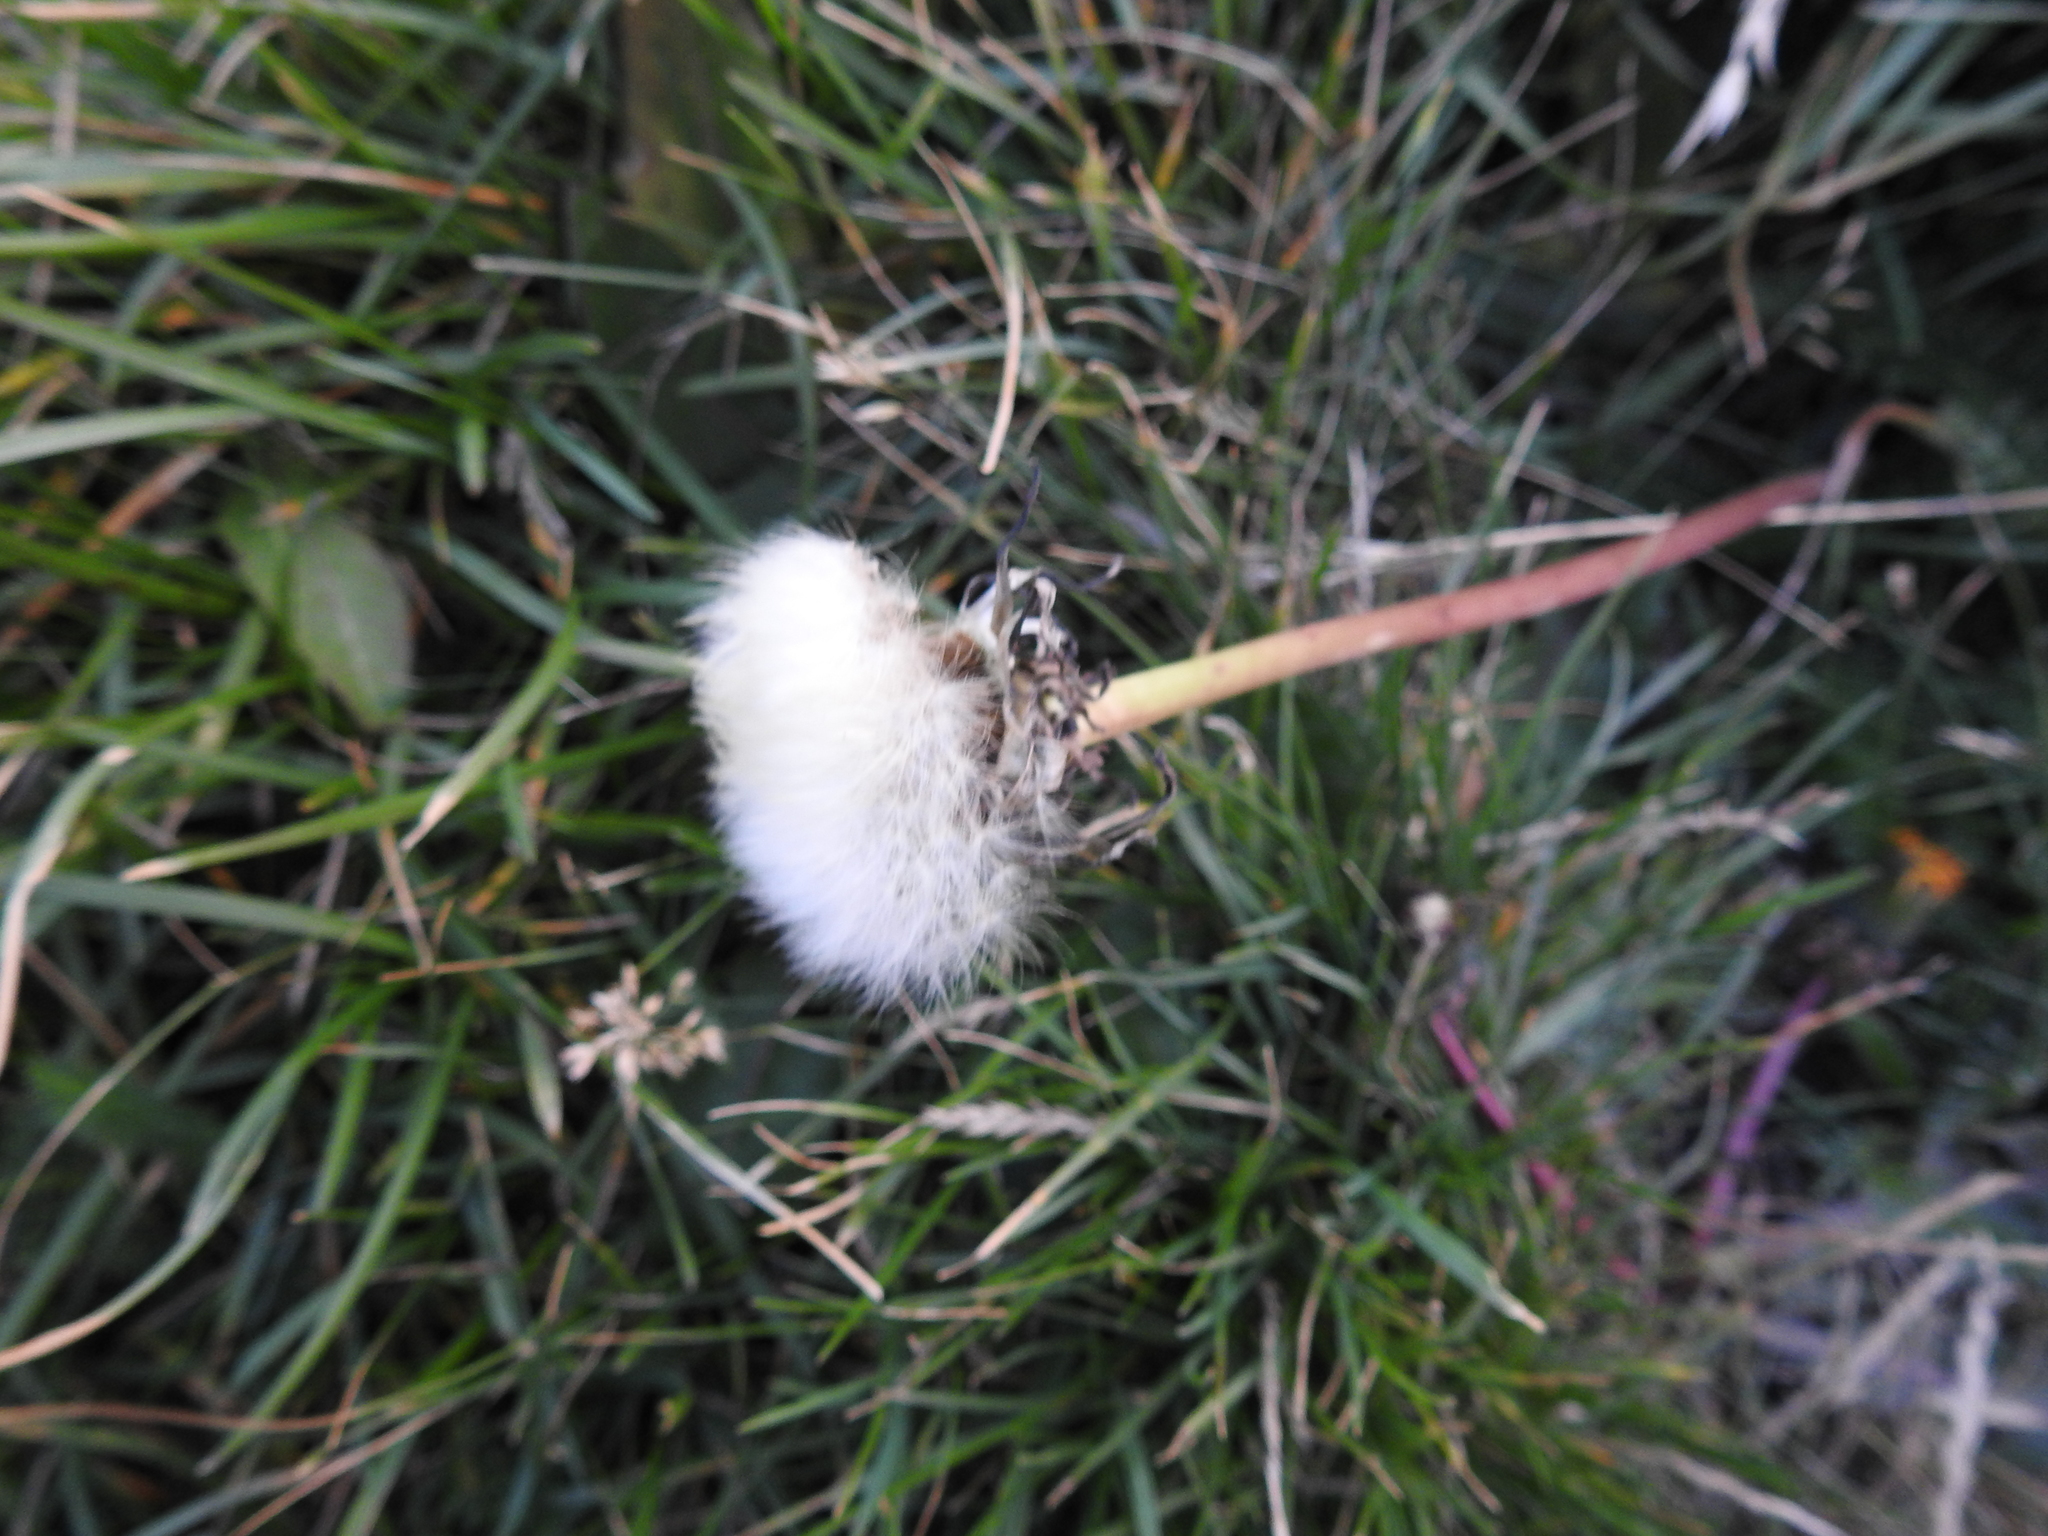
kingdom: Plantae
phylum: Tracheophyta
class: Magnoliopsida
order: Asterales
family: Asteraceae
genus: Taraxacum
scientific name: Taraxacum officinale
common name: Common dandelion
